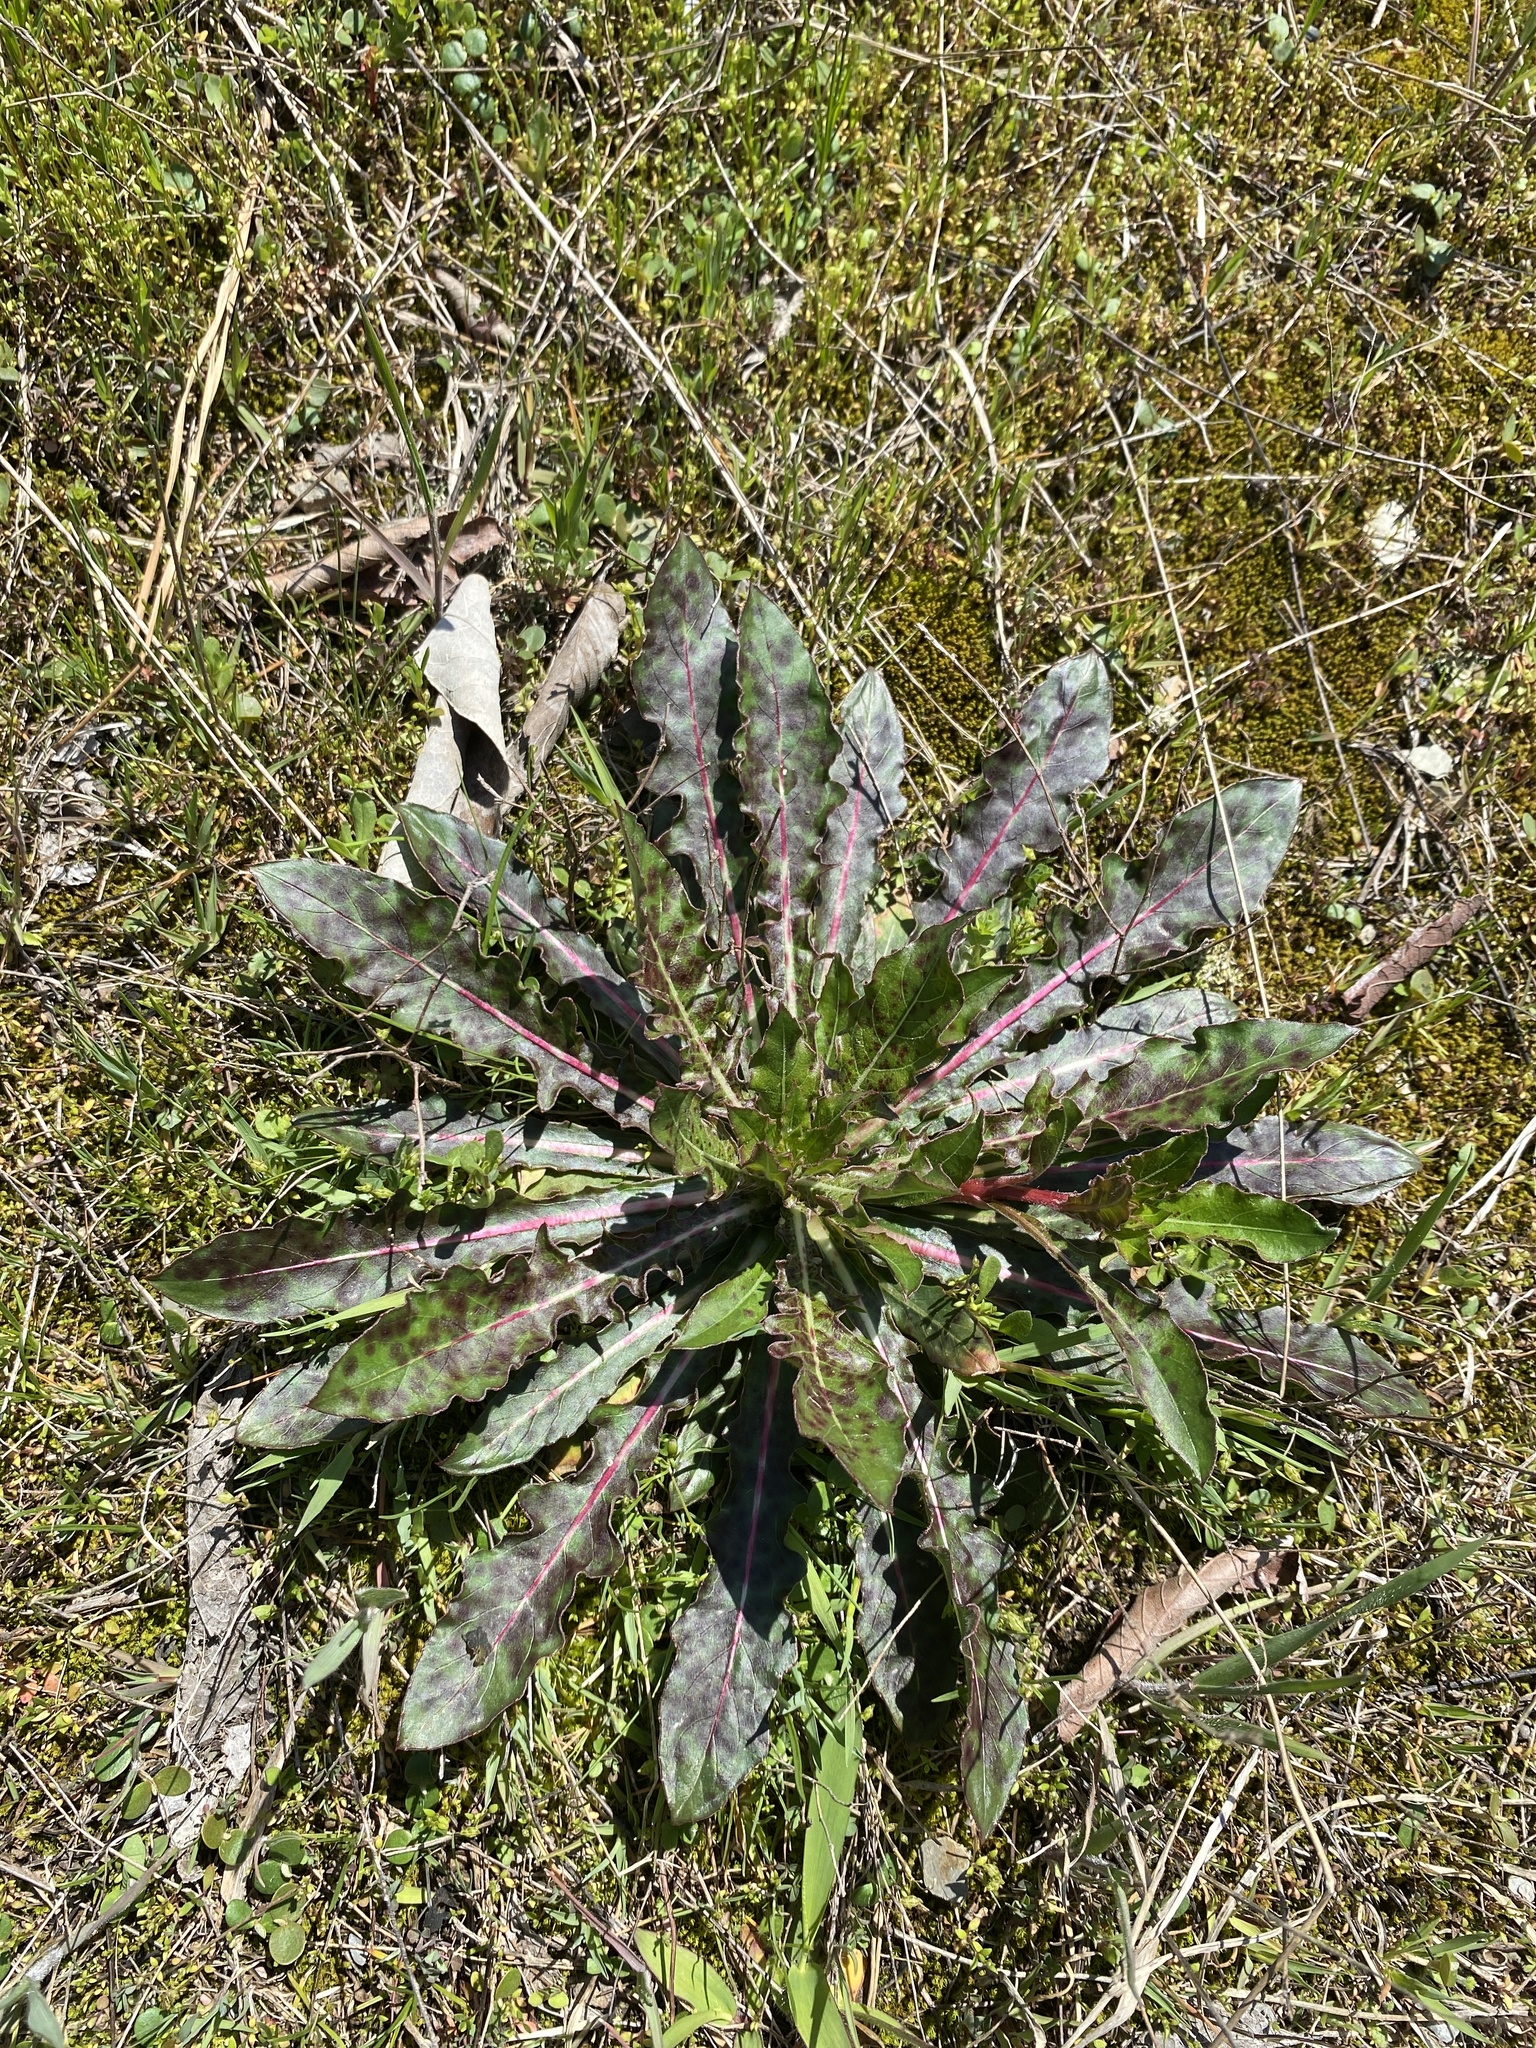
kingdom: Plantae
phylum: Tracheophyta
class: Magnoliopsida
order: Myrtales
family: Onagraceae
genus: Oenothera
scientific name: Oenothera filiformis
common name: Longflower beeblossom
